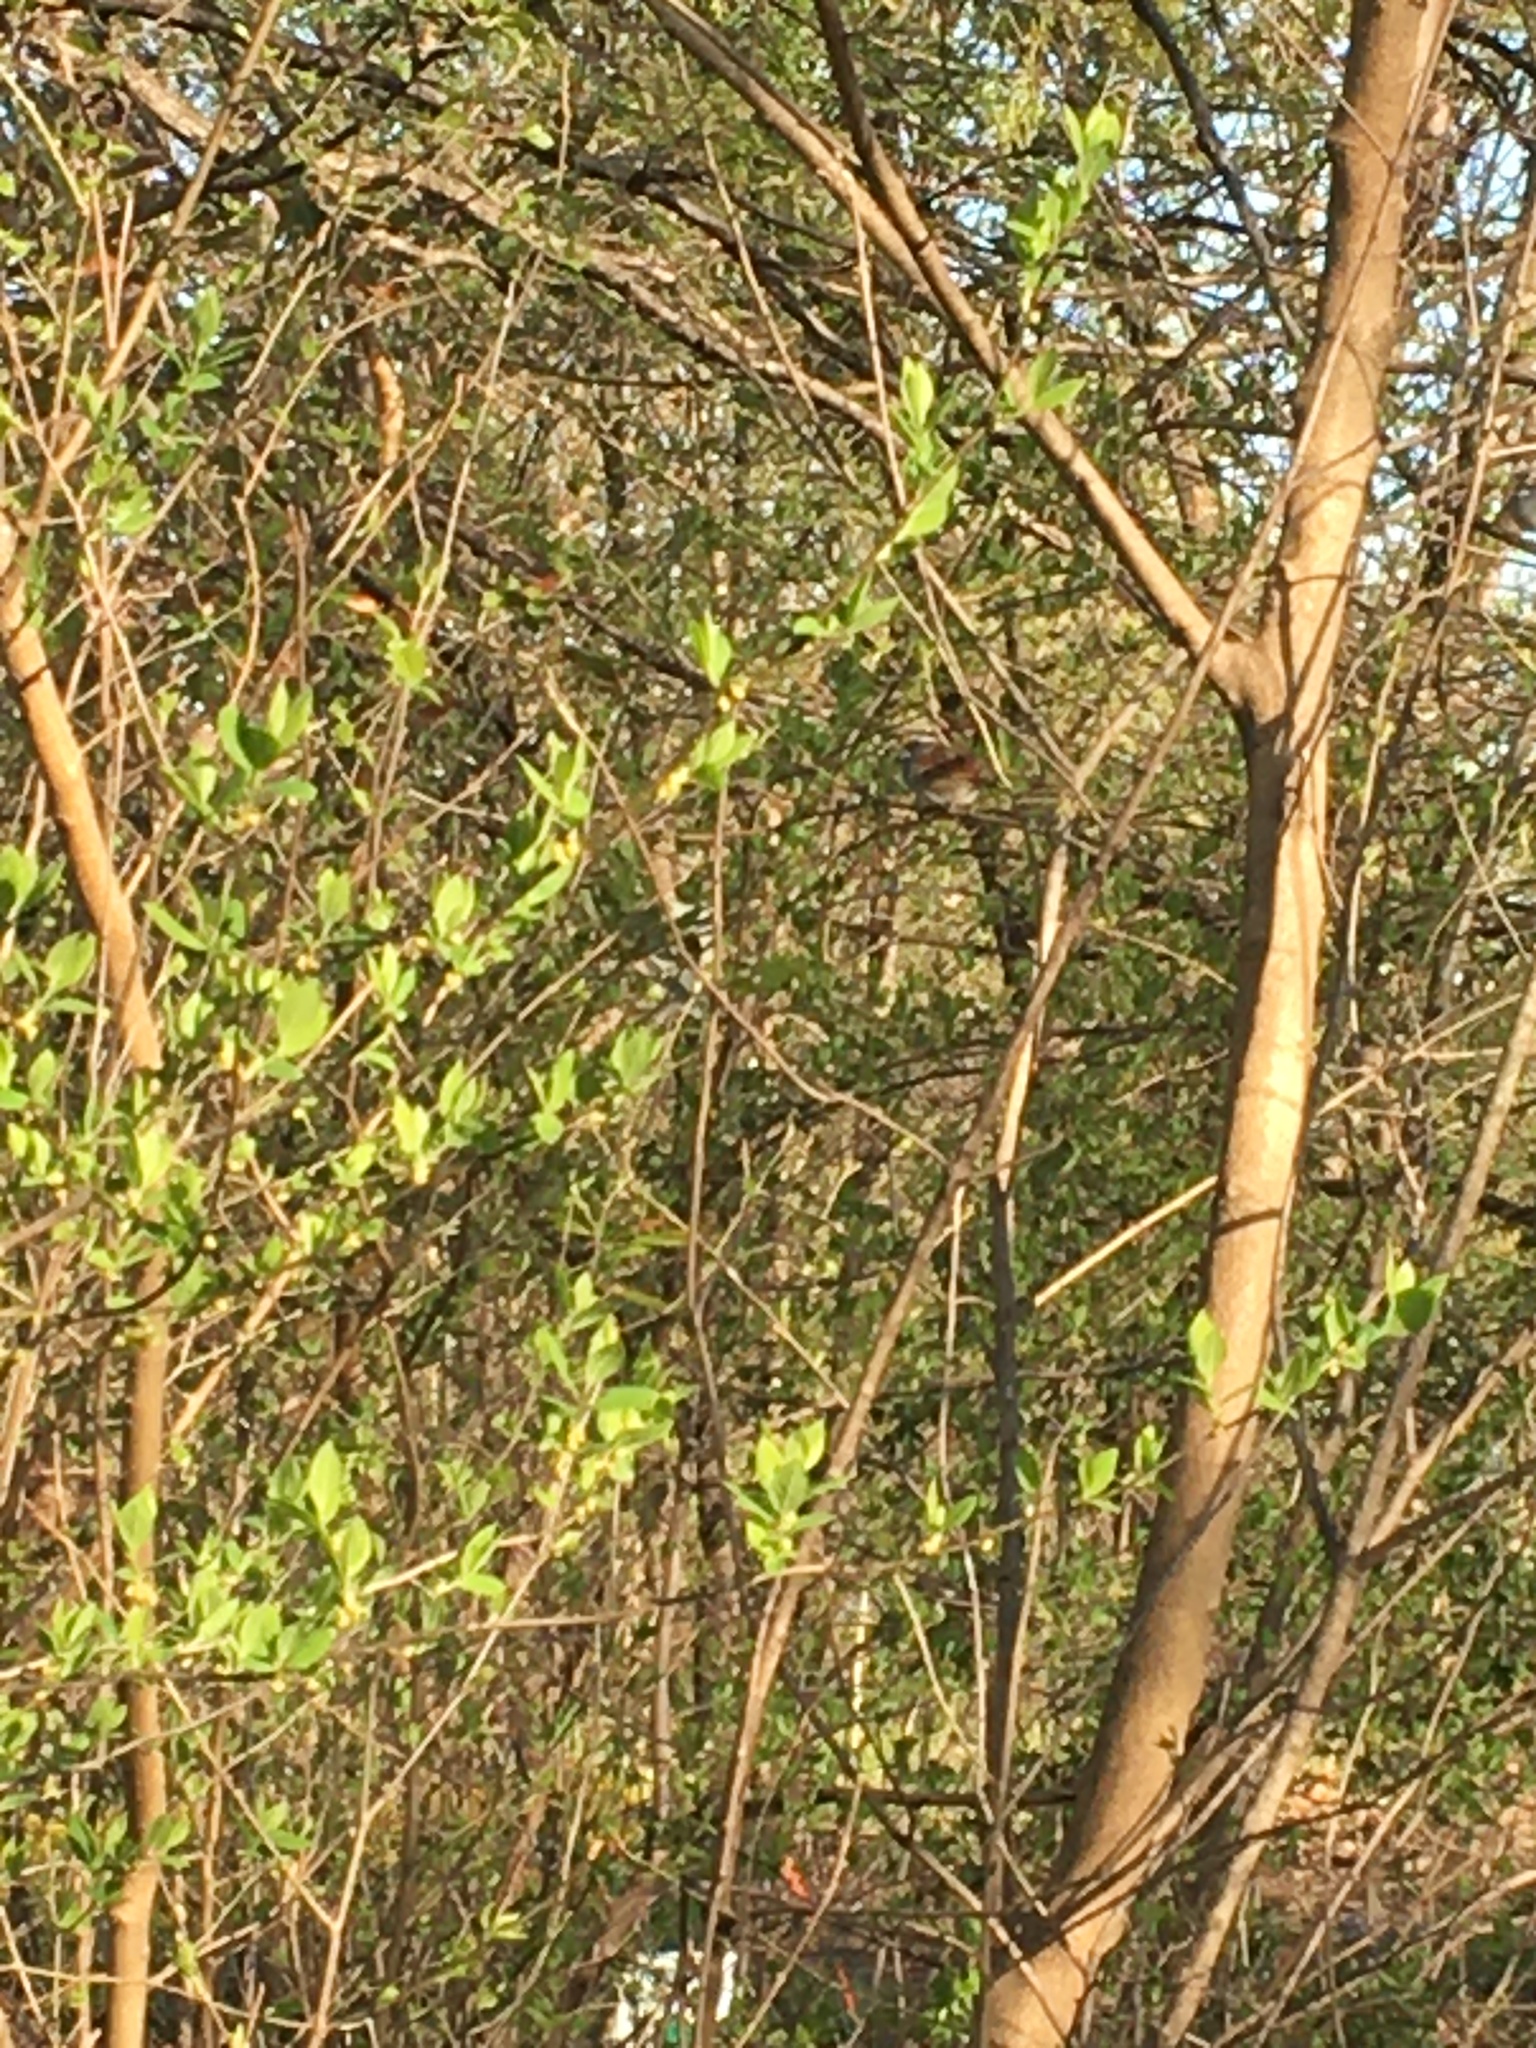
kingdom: Animalia
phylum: Chordata
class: Aves
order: Passeriformes
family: Passerellidae
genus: Zonotrichia
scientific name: Zonotrichia albicollis
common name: White-throated sparrow
